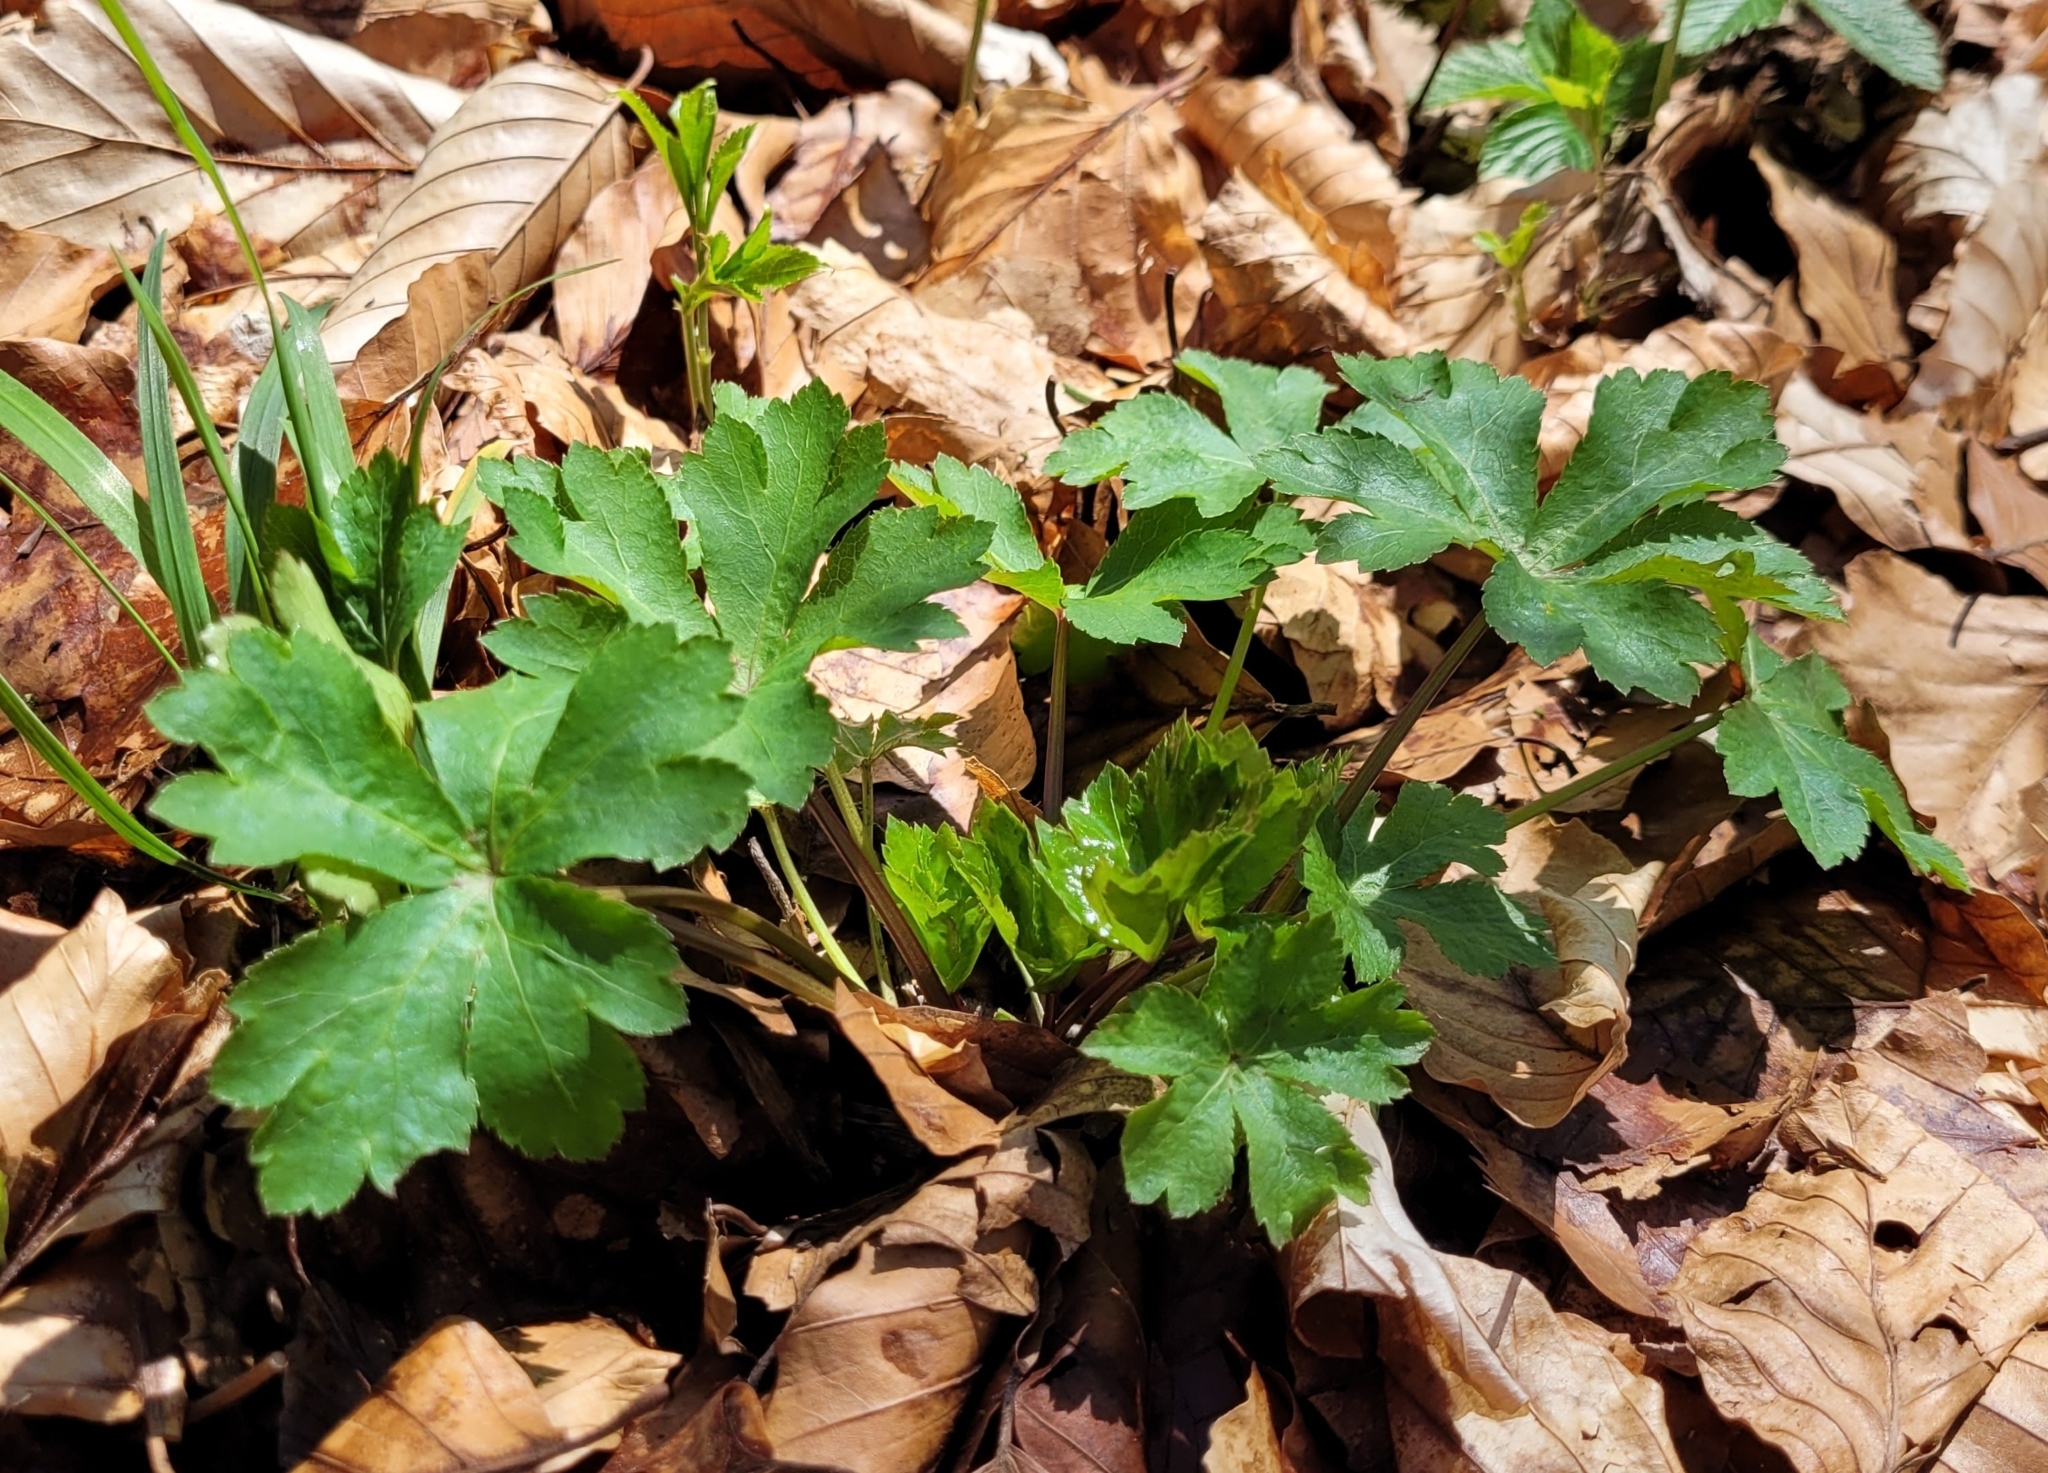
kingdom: Plantae
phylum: Tracheophyta
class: Magnoliopsida
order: Apiales
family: Apiaceae
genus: Sanicula
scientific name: Sanicula europaea
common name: Sanicle
